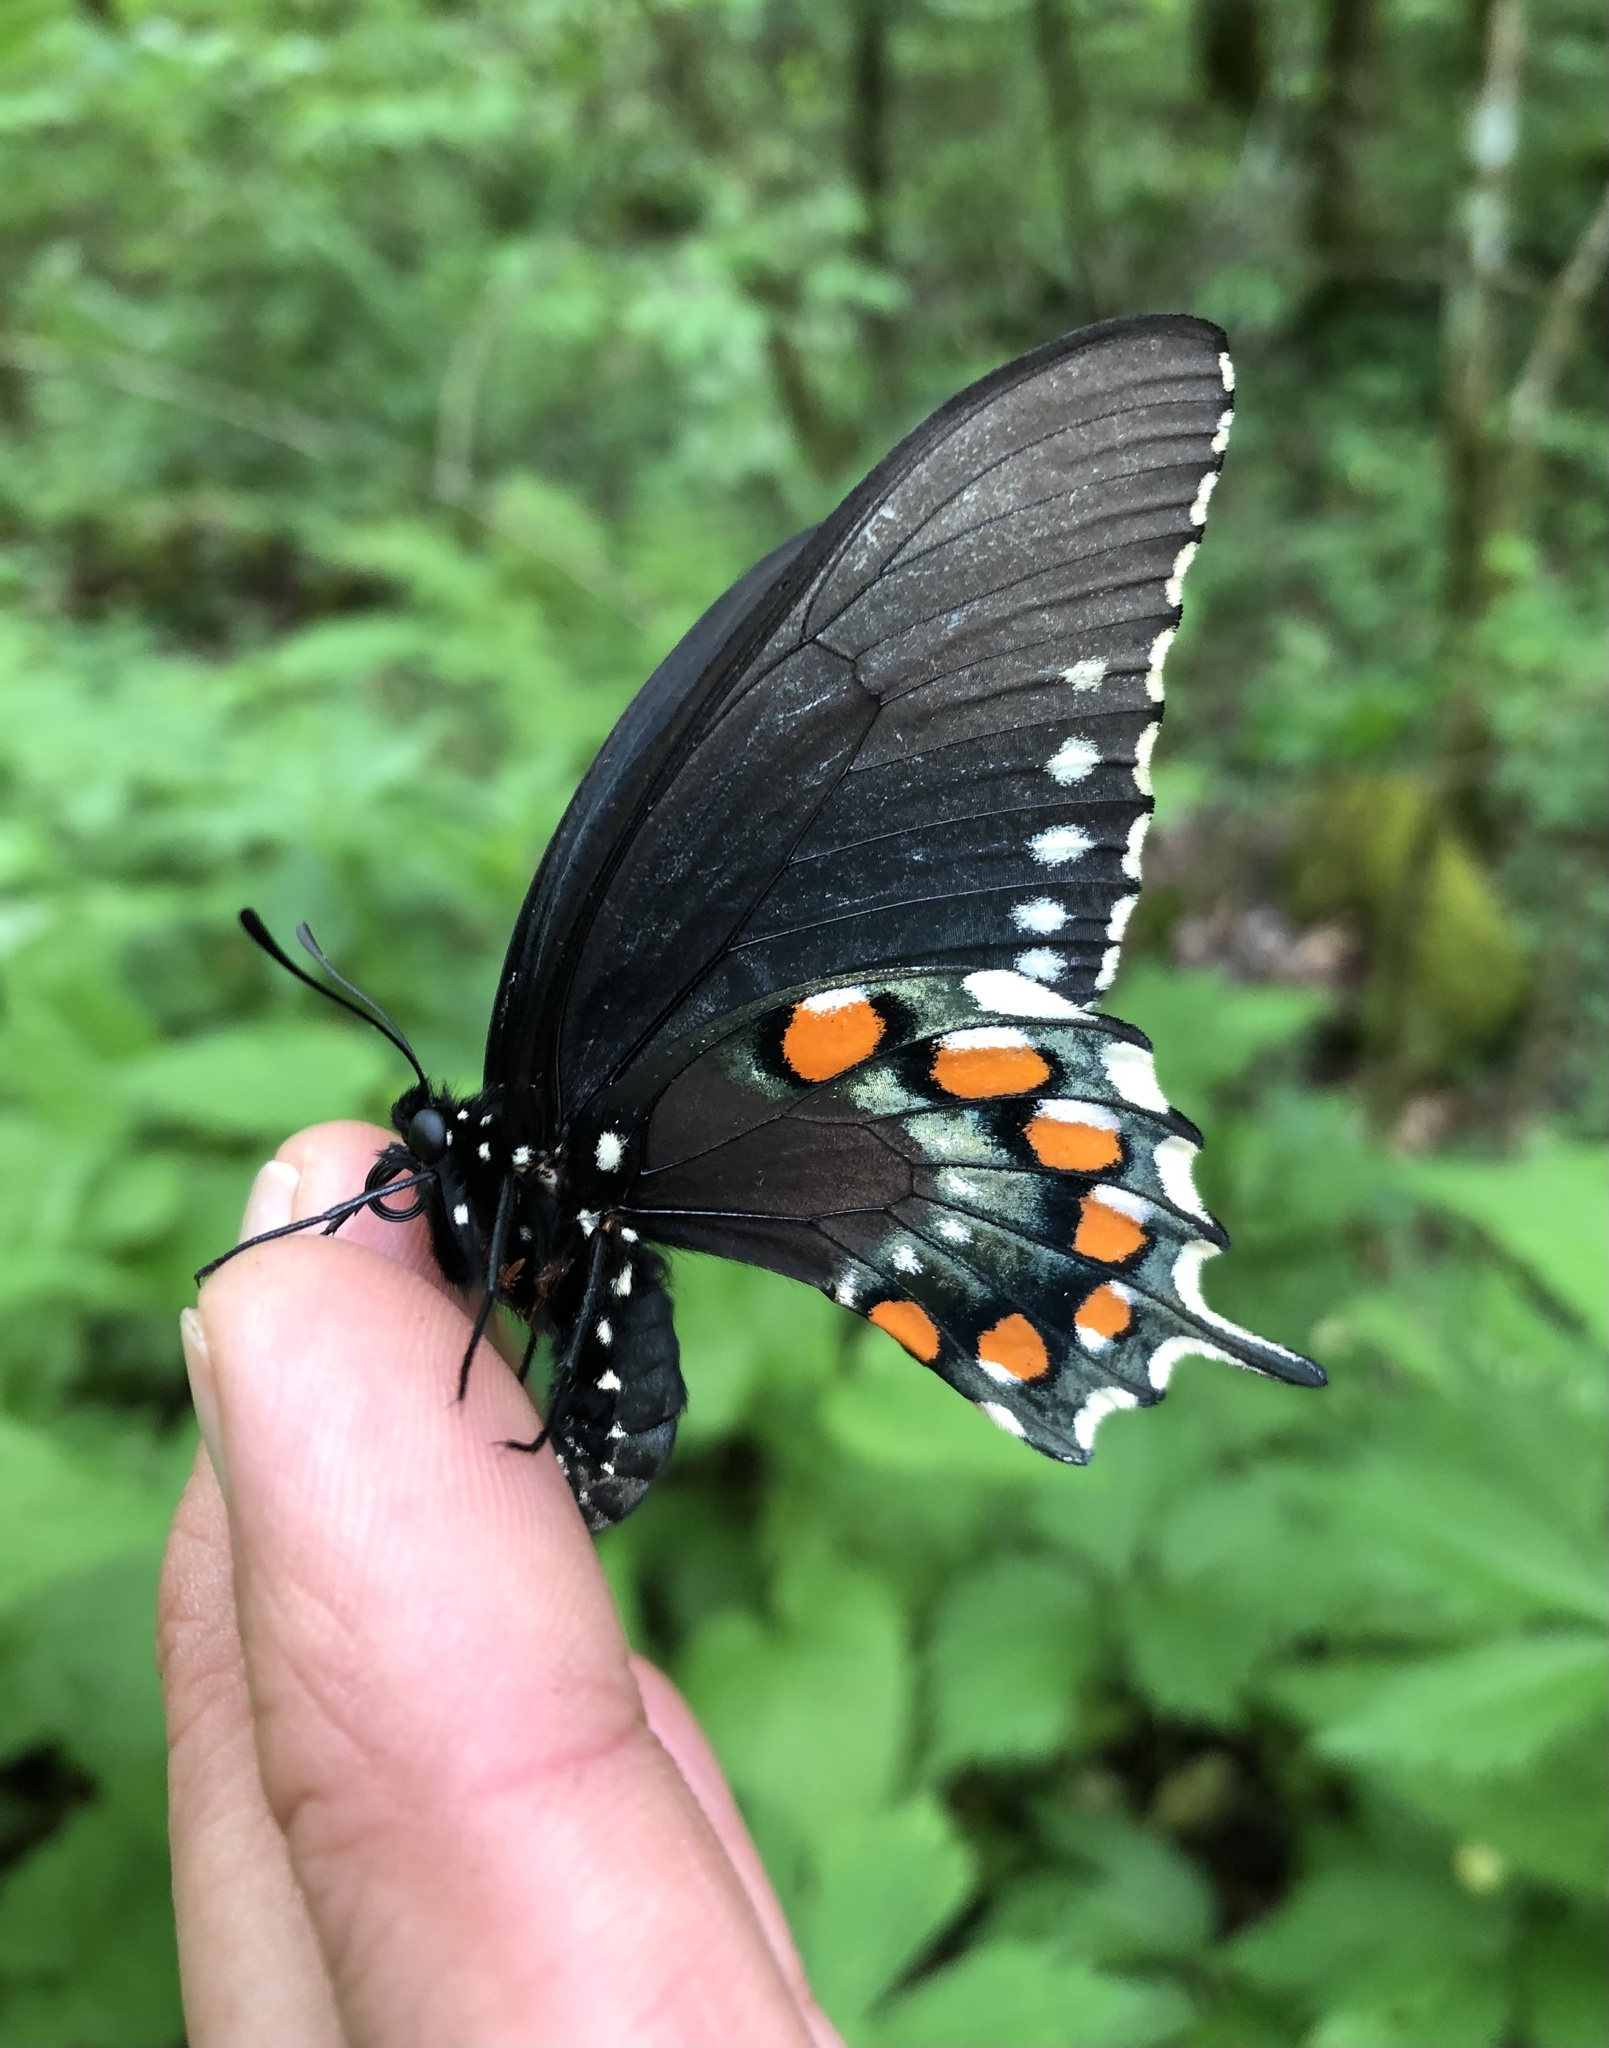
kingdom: Animalia
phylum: Arthropoda
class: Insecta
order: Lepidoptera
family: Papilionidae
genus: Battus
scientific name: Battus philenor
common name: Pipevine swallowtail
